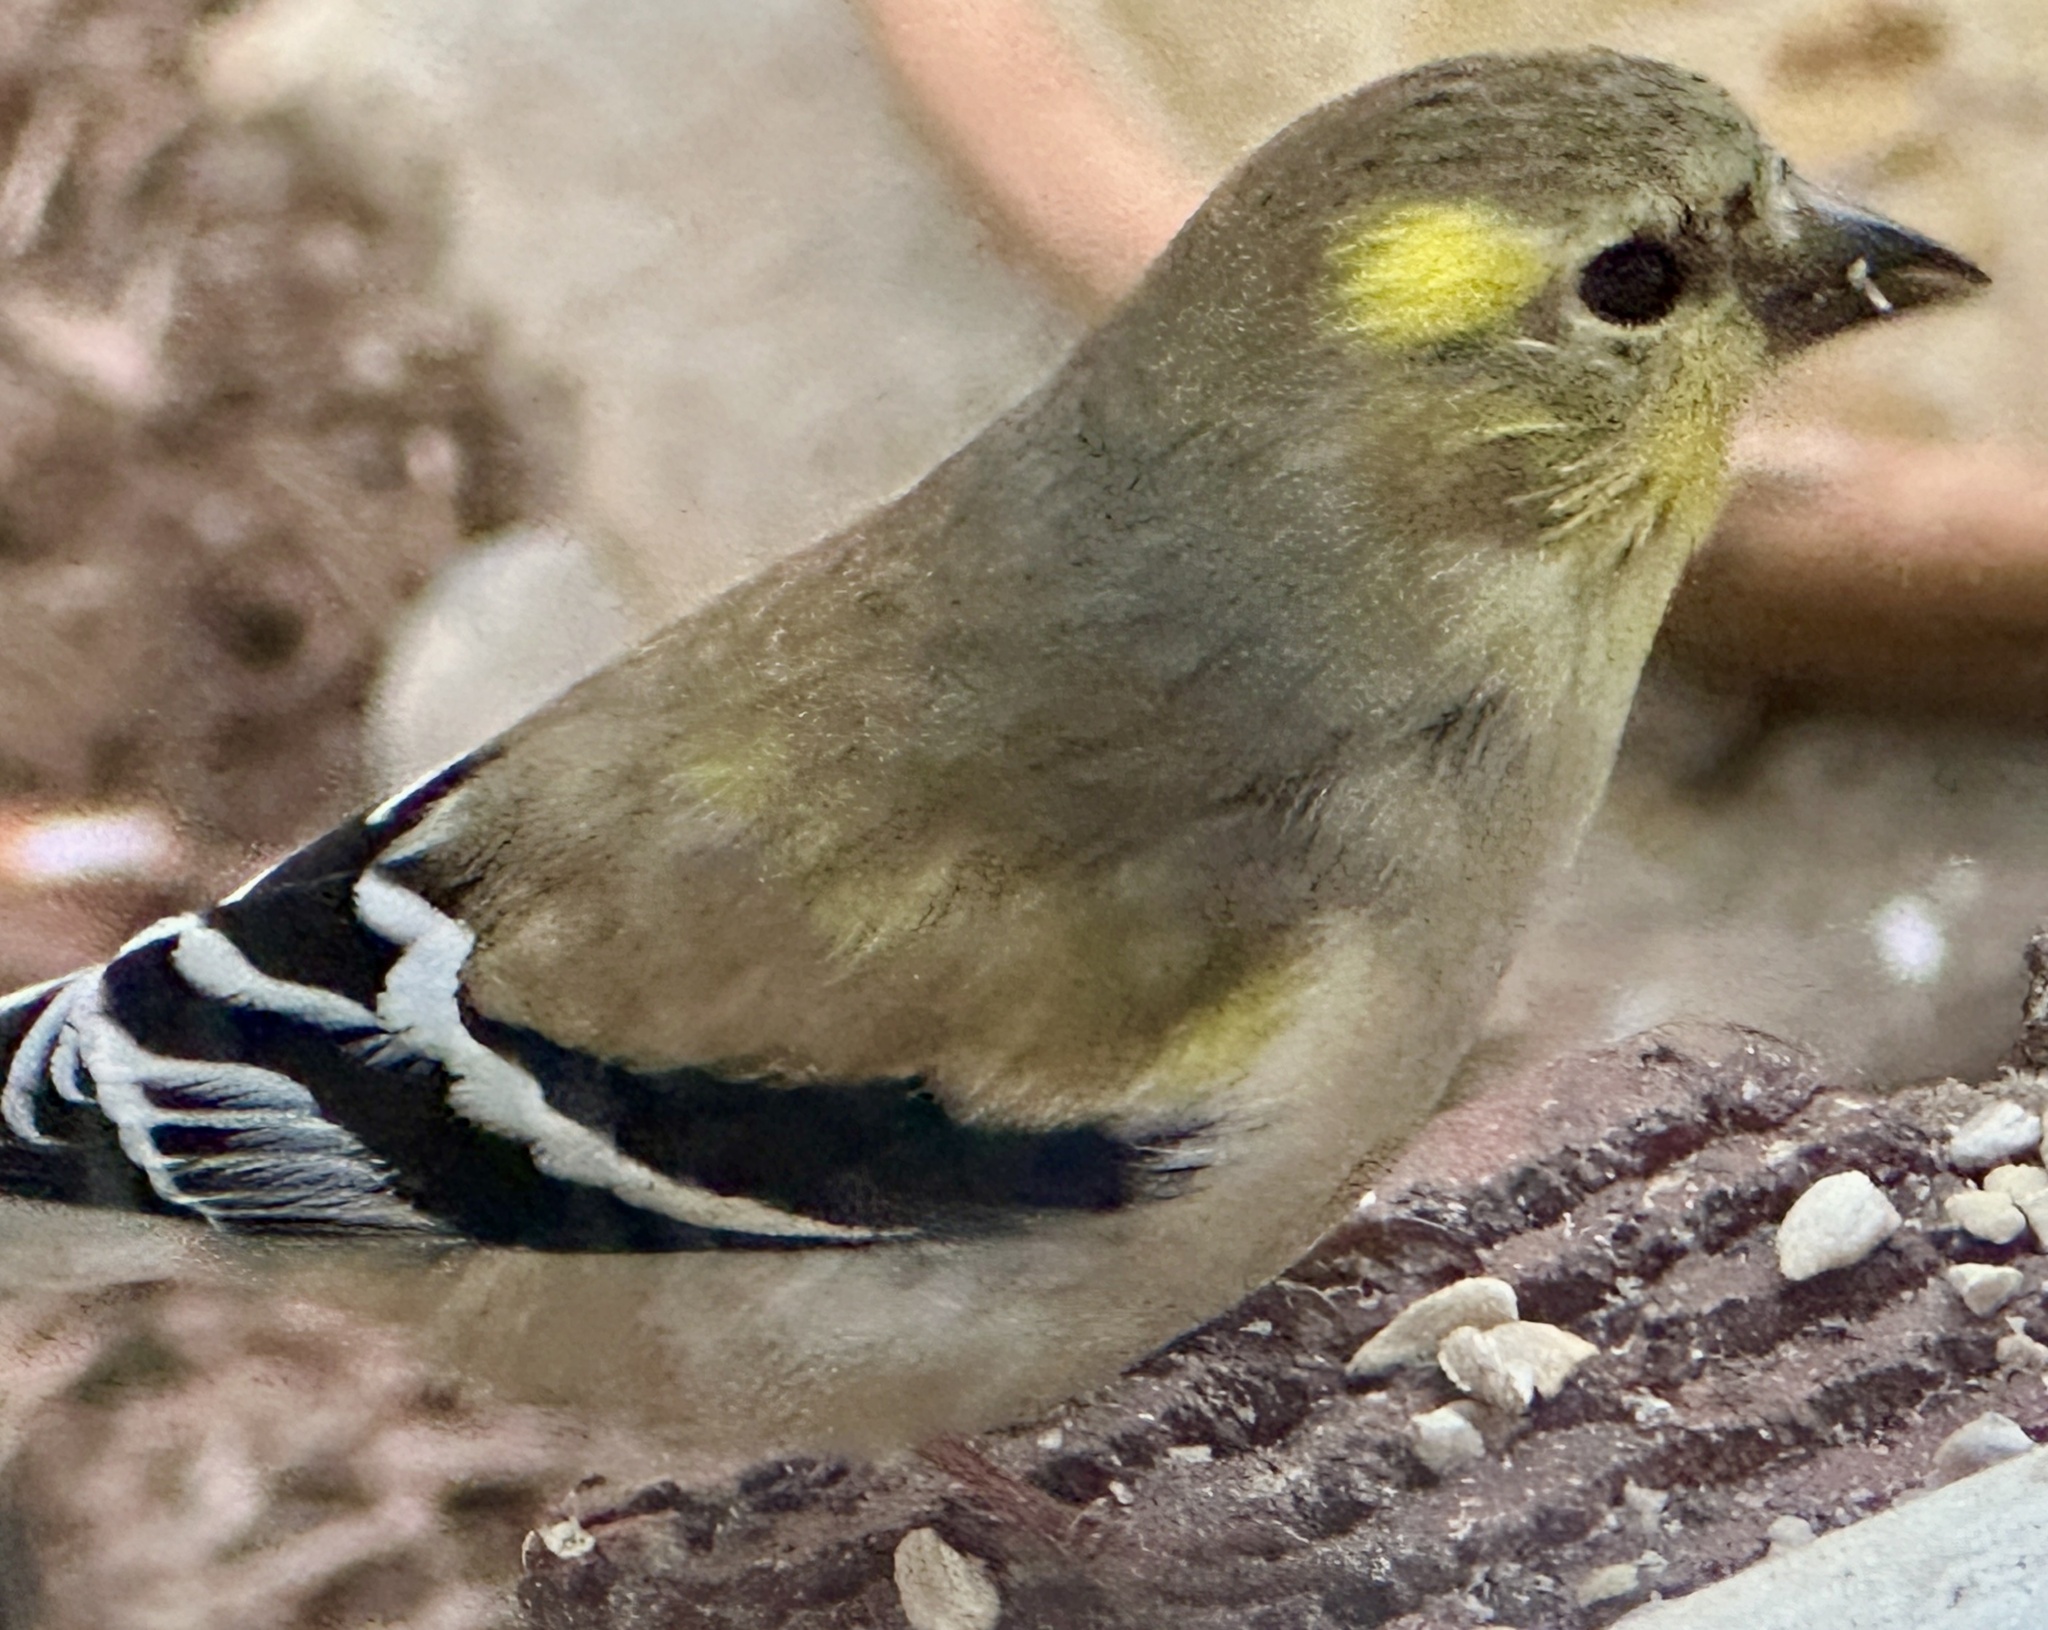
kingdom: Animalia
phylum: Chordata
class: Aves
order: Passeriformes
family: Fringillidae
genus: Spinus
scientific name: Spinus tristis
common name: American goldfinch
